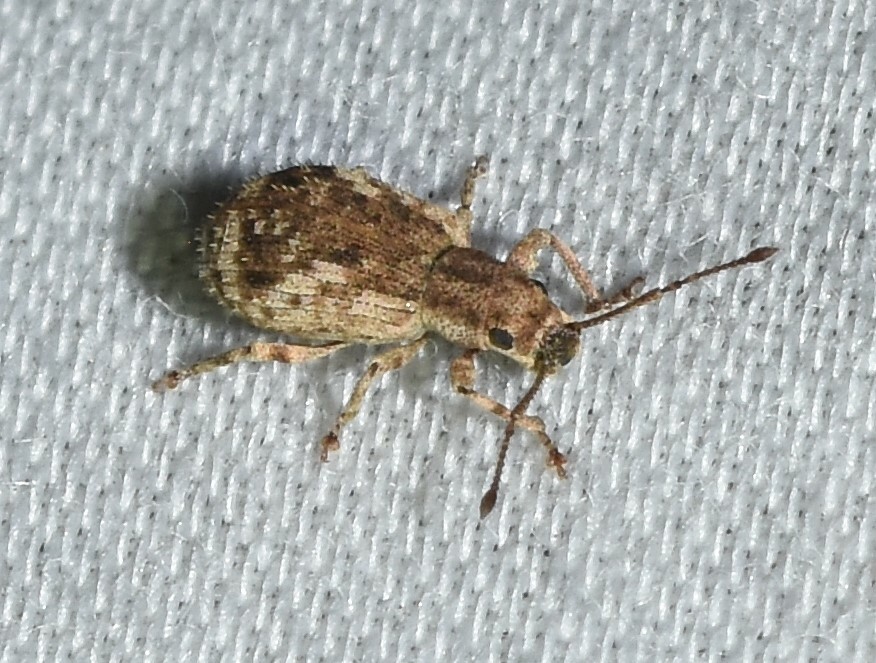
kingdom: Animalia
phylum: Arthropoda
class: Insecta
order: Coleoptera
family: Curculionidae
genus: Pseudoedophrys
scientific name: Pseudoedophrys hilleri
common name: Weevil
